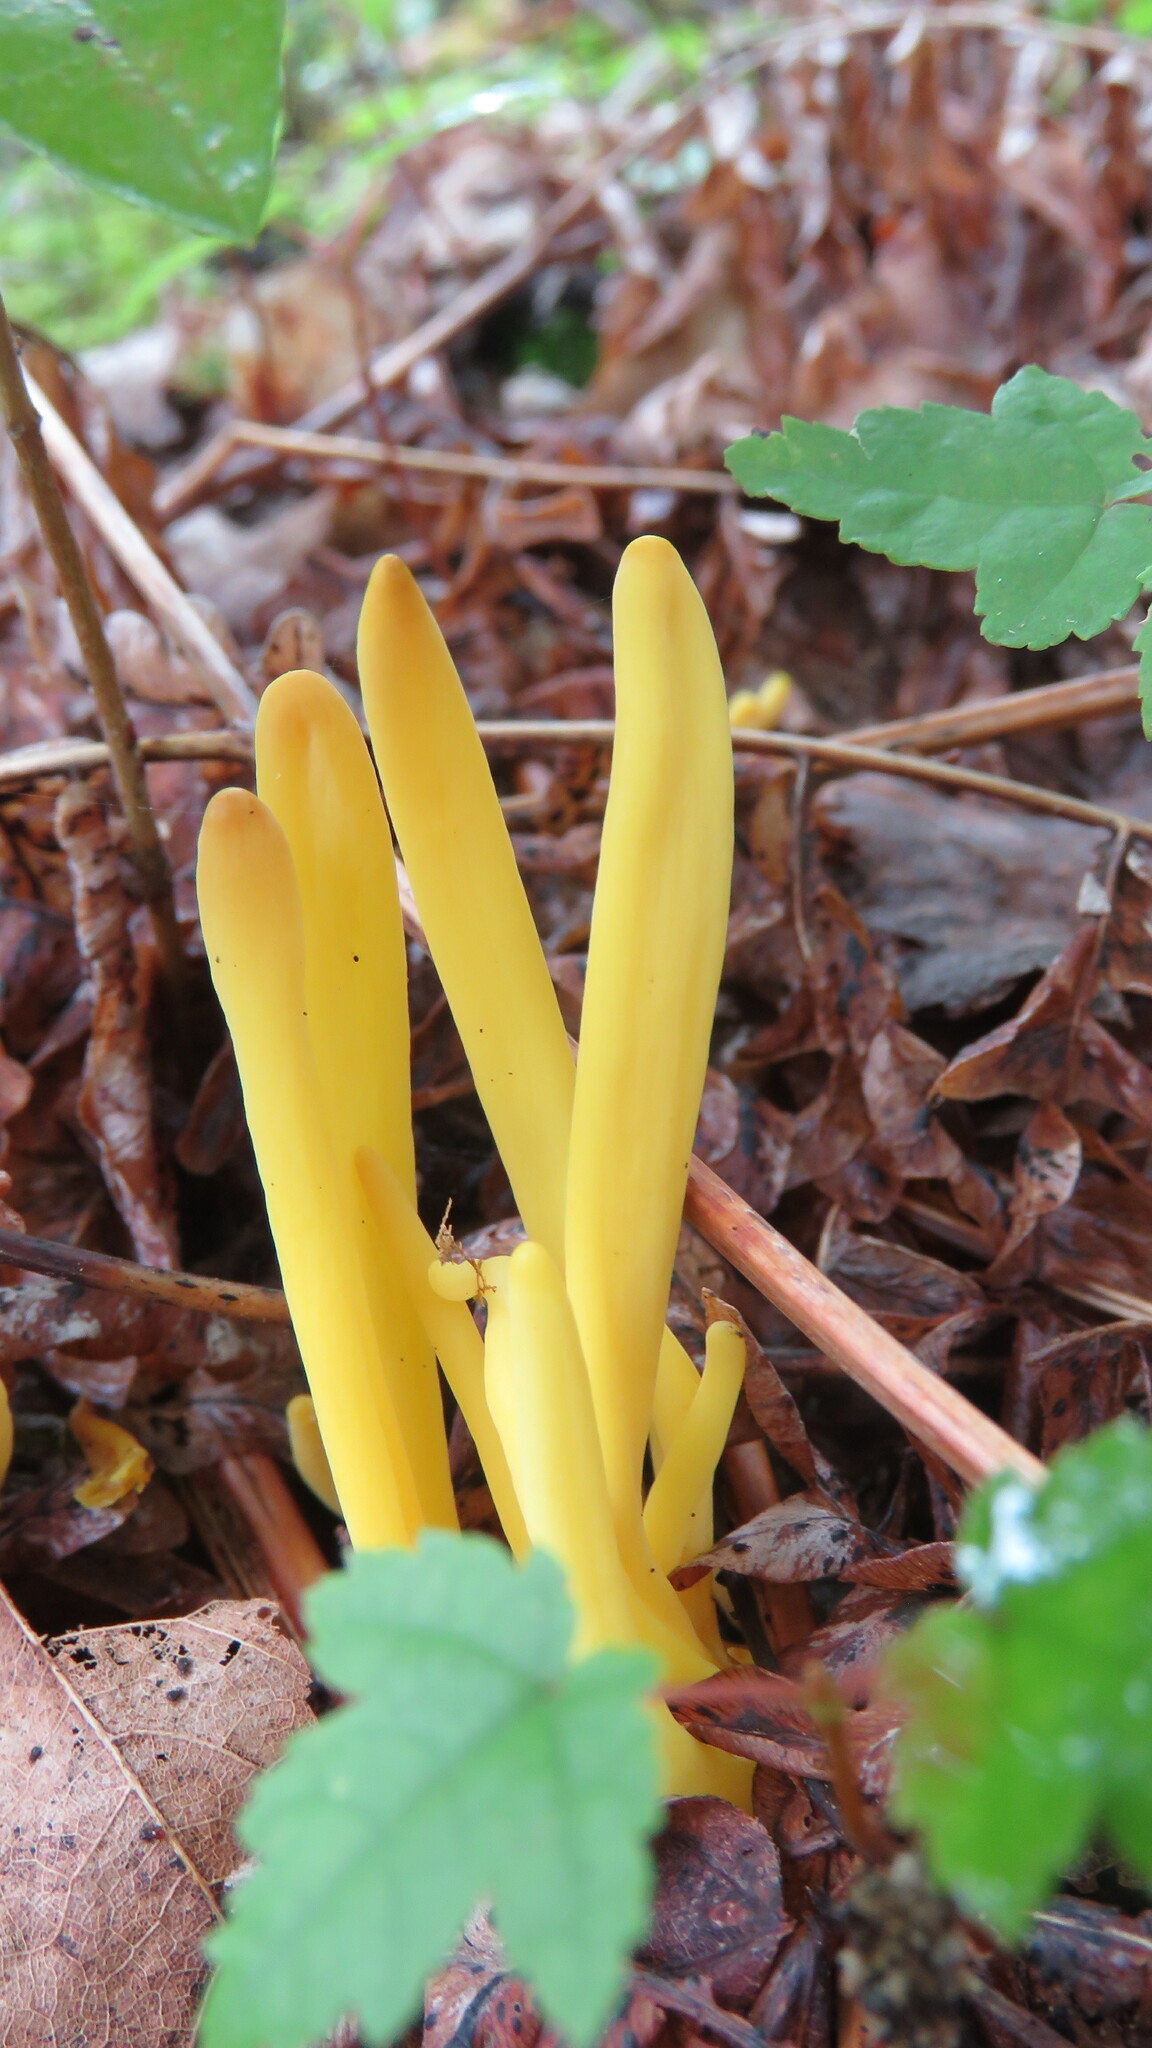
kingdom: Fungi
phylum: Basidiomycota
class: Agaricomycetes
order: Agaricales
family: Clavariaceae
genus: Clavulinopsis
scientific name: Clavulinopsis fusiformis
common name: Golden spindles
